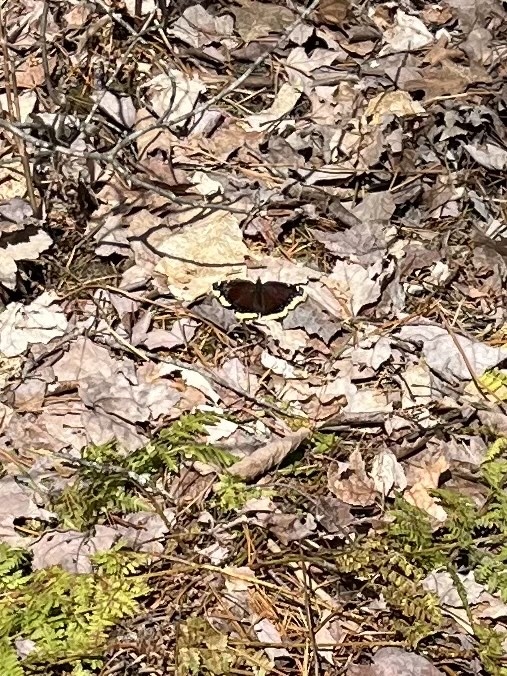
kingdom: Animalia
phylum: Arthropoda
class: Insecta
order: Lepidoptera
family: Nymphalidae
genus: Nymphalis
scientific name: Nymphalis antiopa
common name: Camberwell beauty
